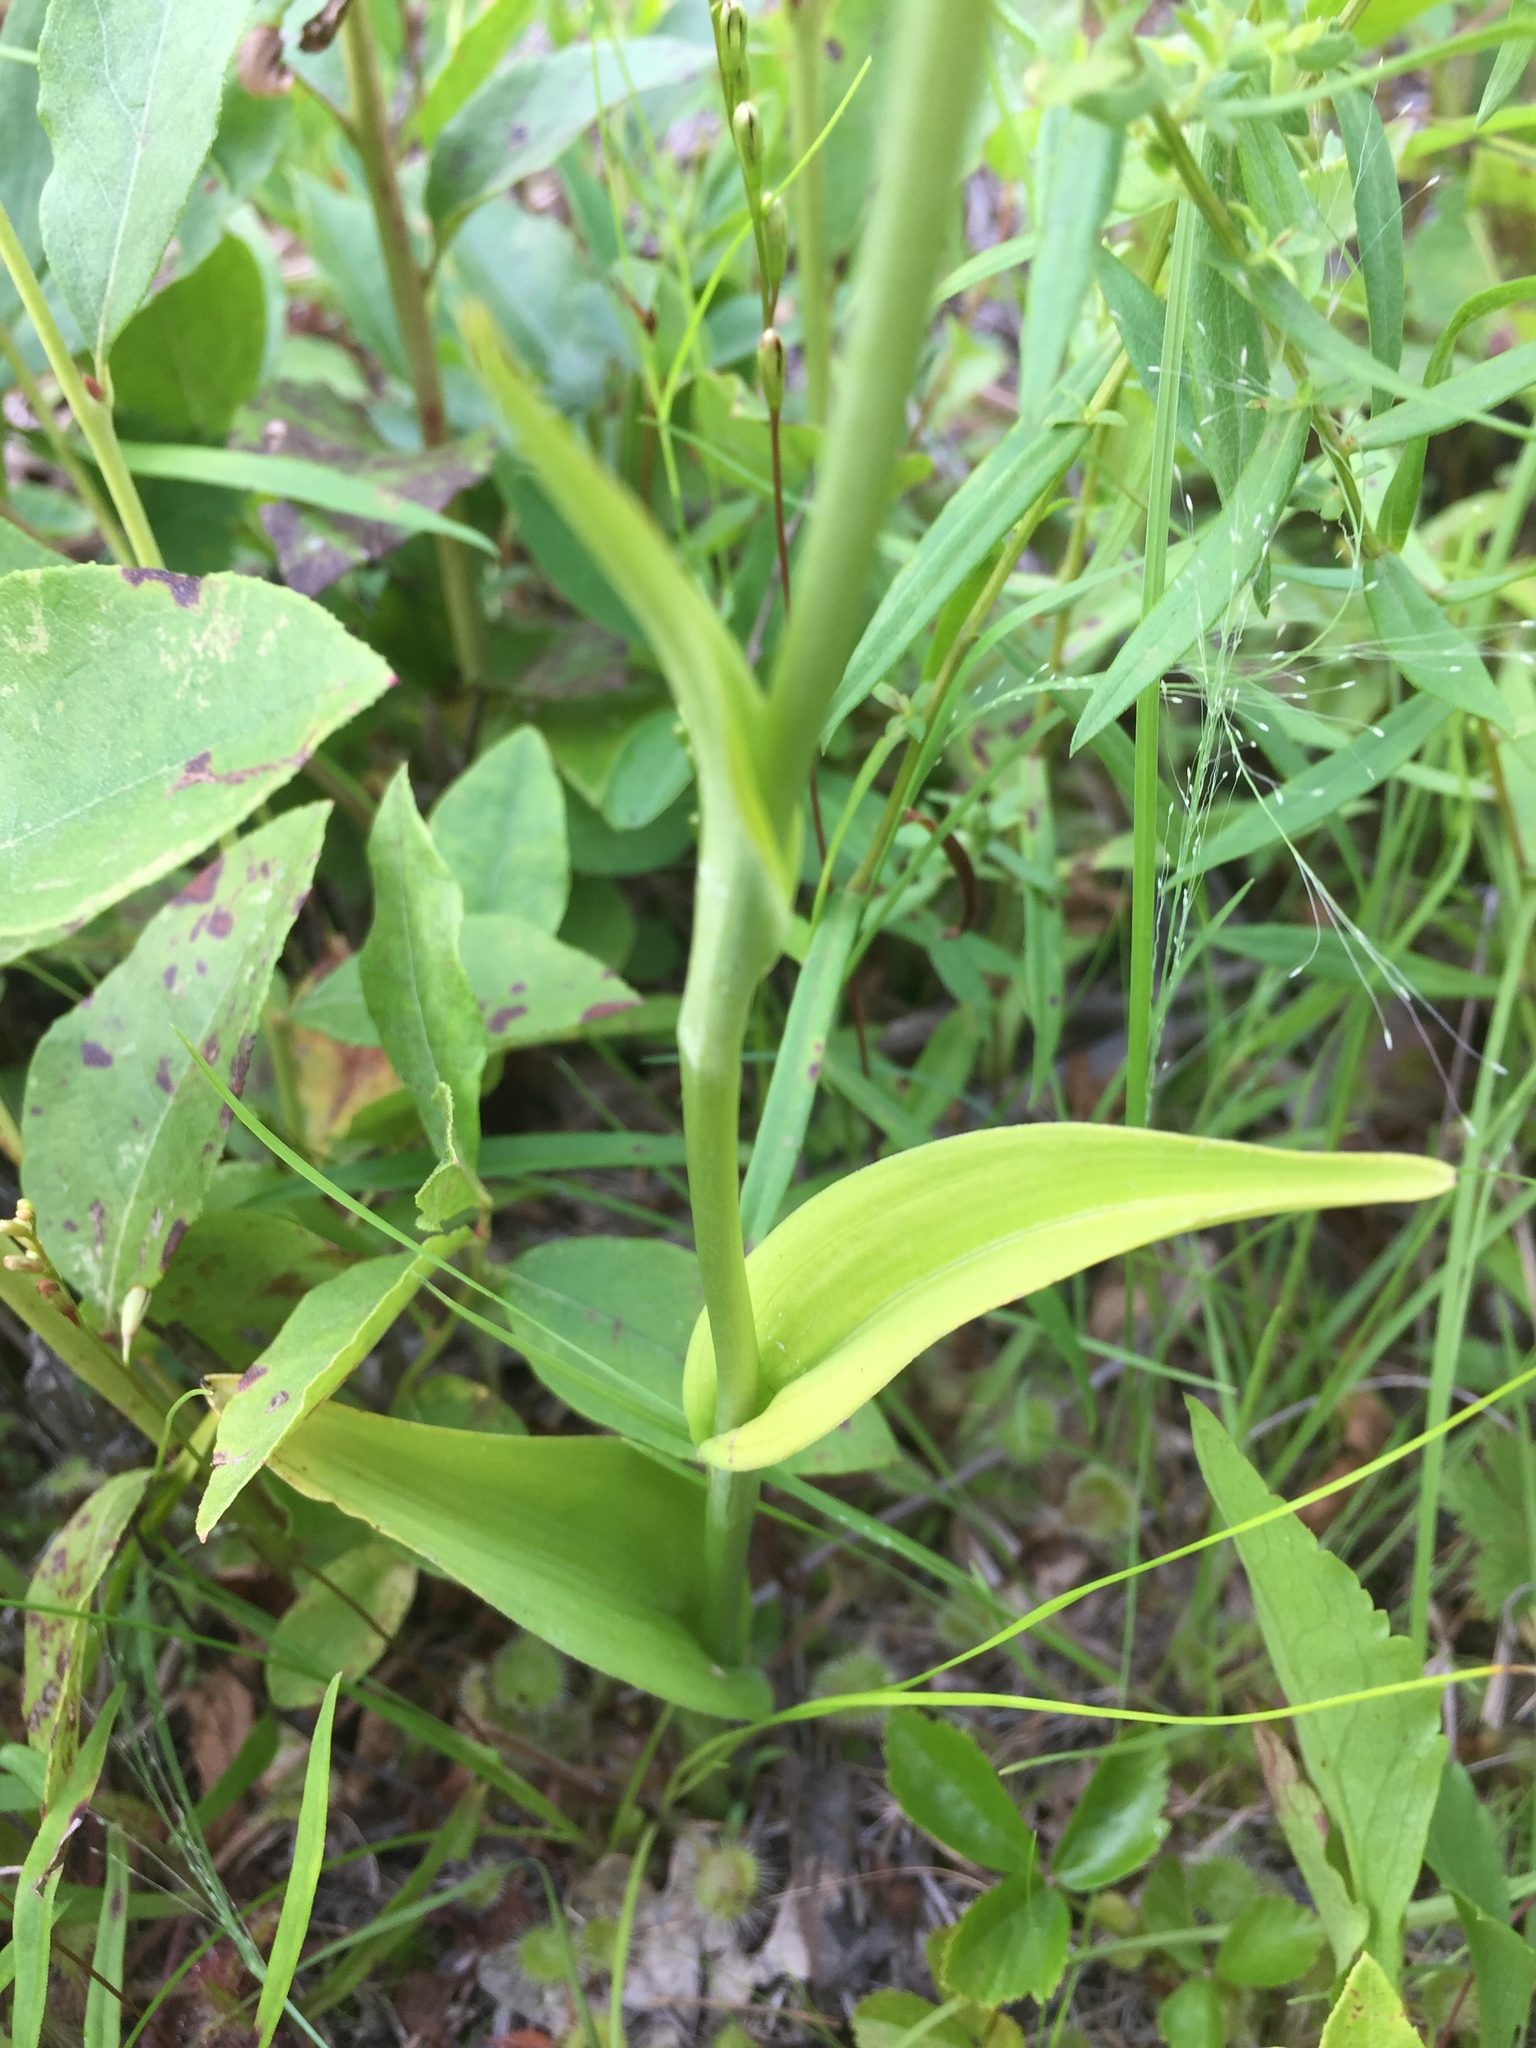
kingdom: Plantae
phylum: Tracheophyta
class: Liliopsida
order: Asparagales
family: Orchidaceae
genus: Platanthera
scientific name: Platanthera blephariglottis
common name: White fringed orchid
